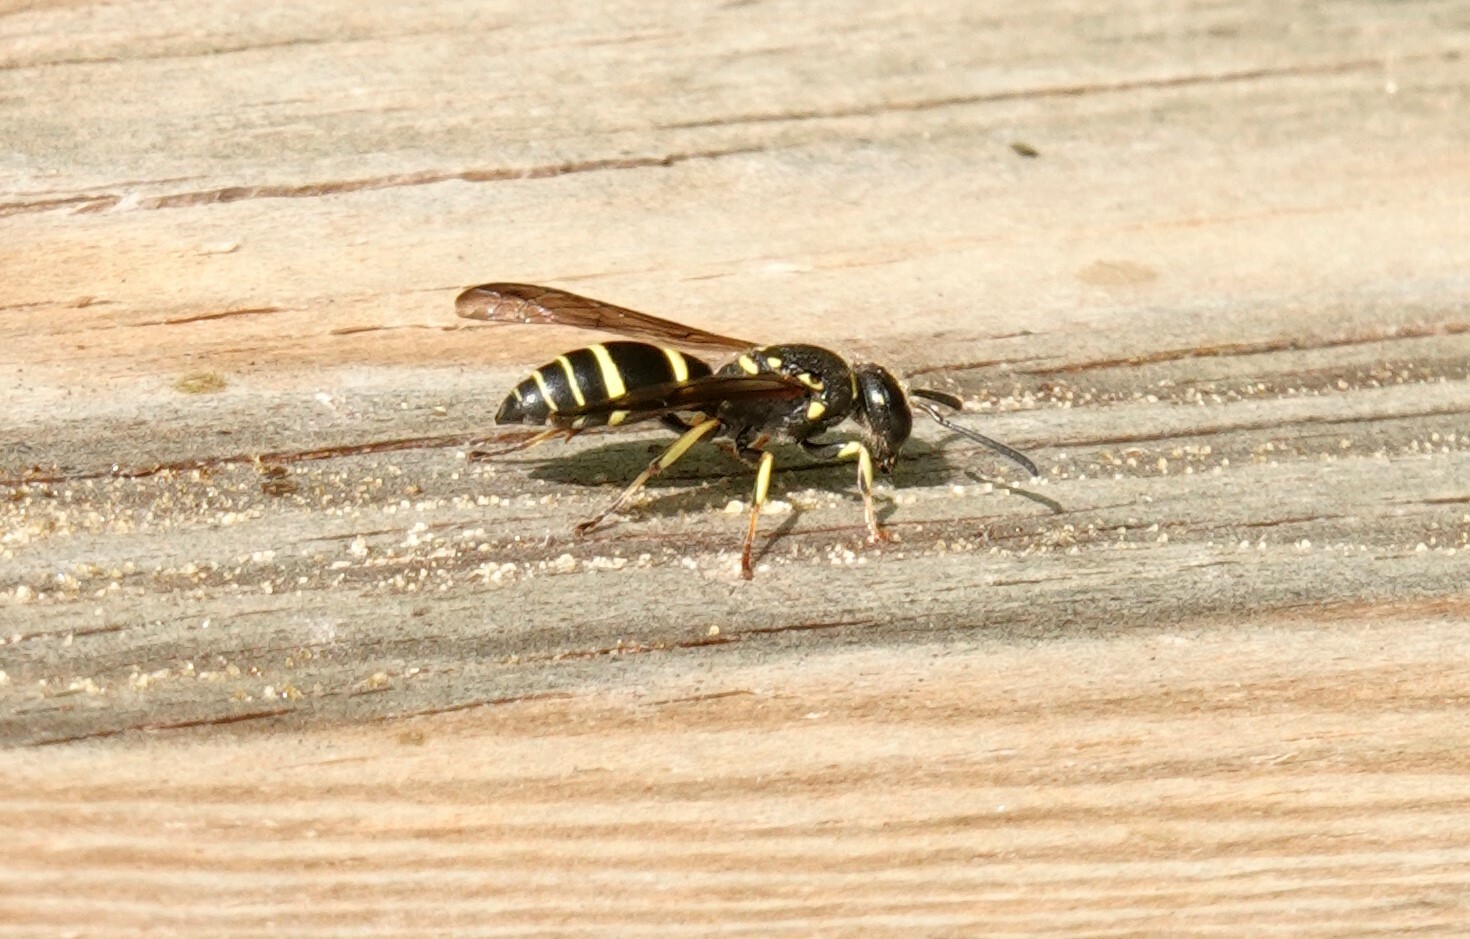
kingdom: Animalia
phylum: Arthropoda
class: Insecta
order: Hymenoptera
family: Vespidae
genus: Ancistrocerus
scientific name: Ancistrocerus adiabatus
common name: Bramble mason wasp
